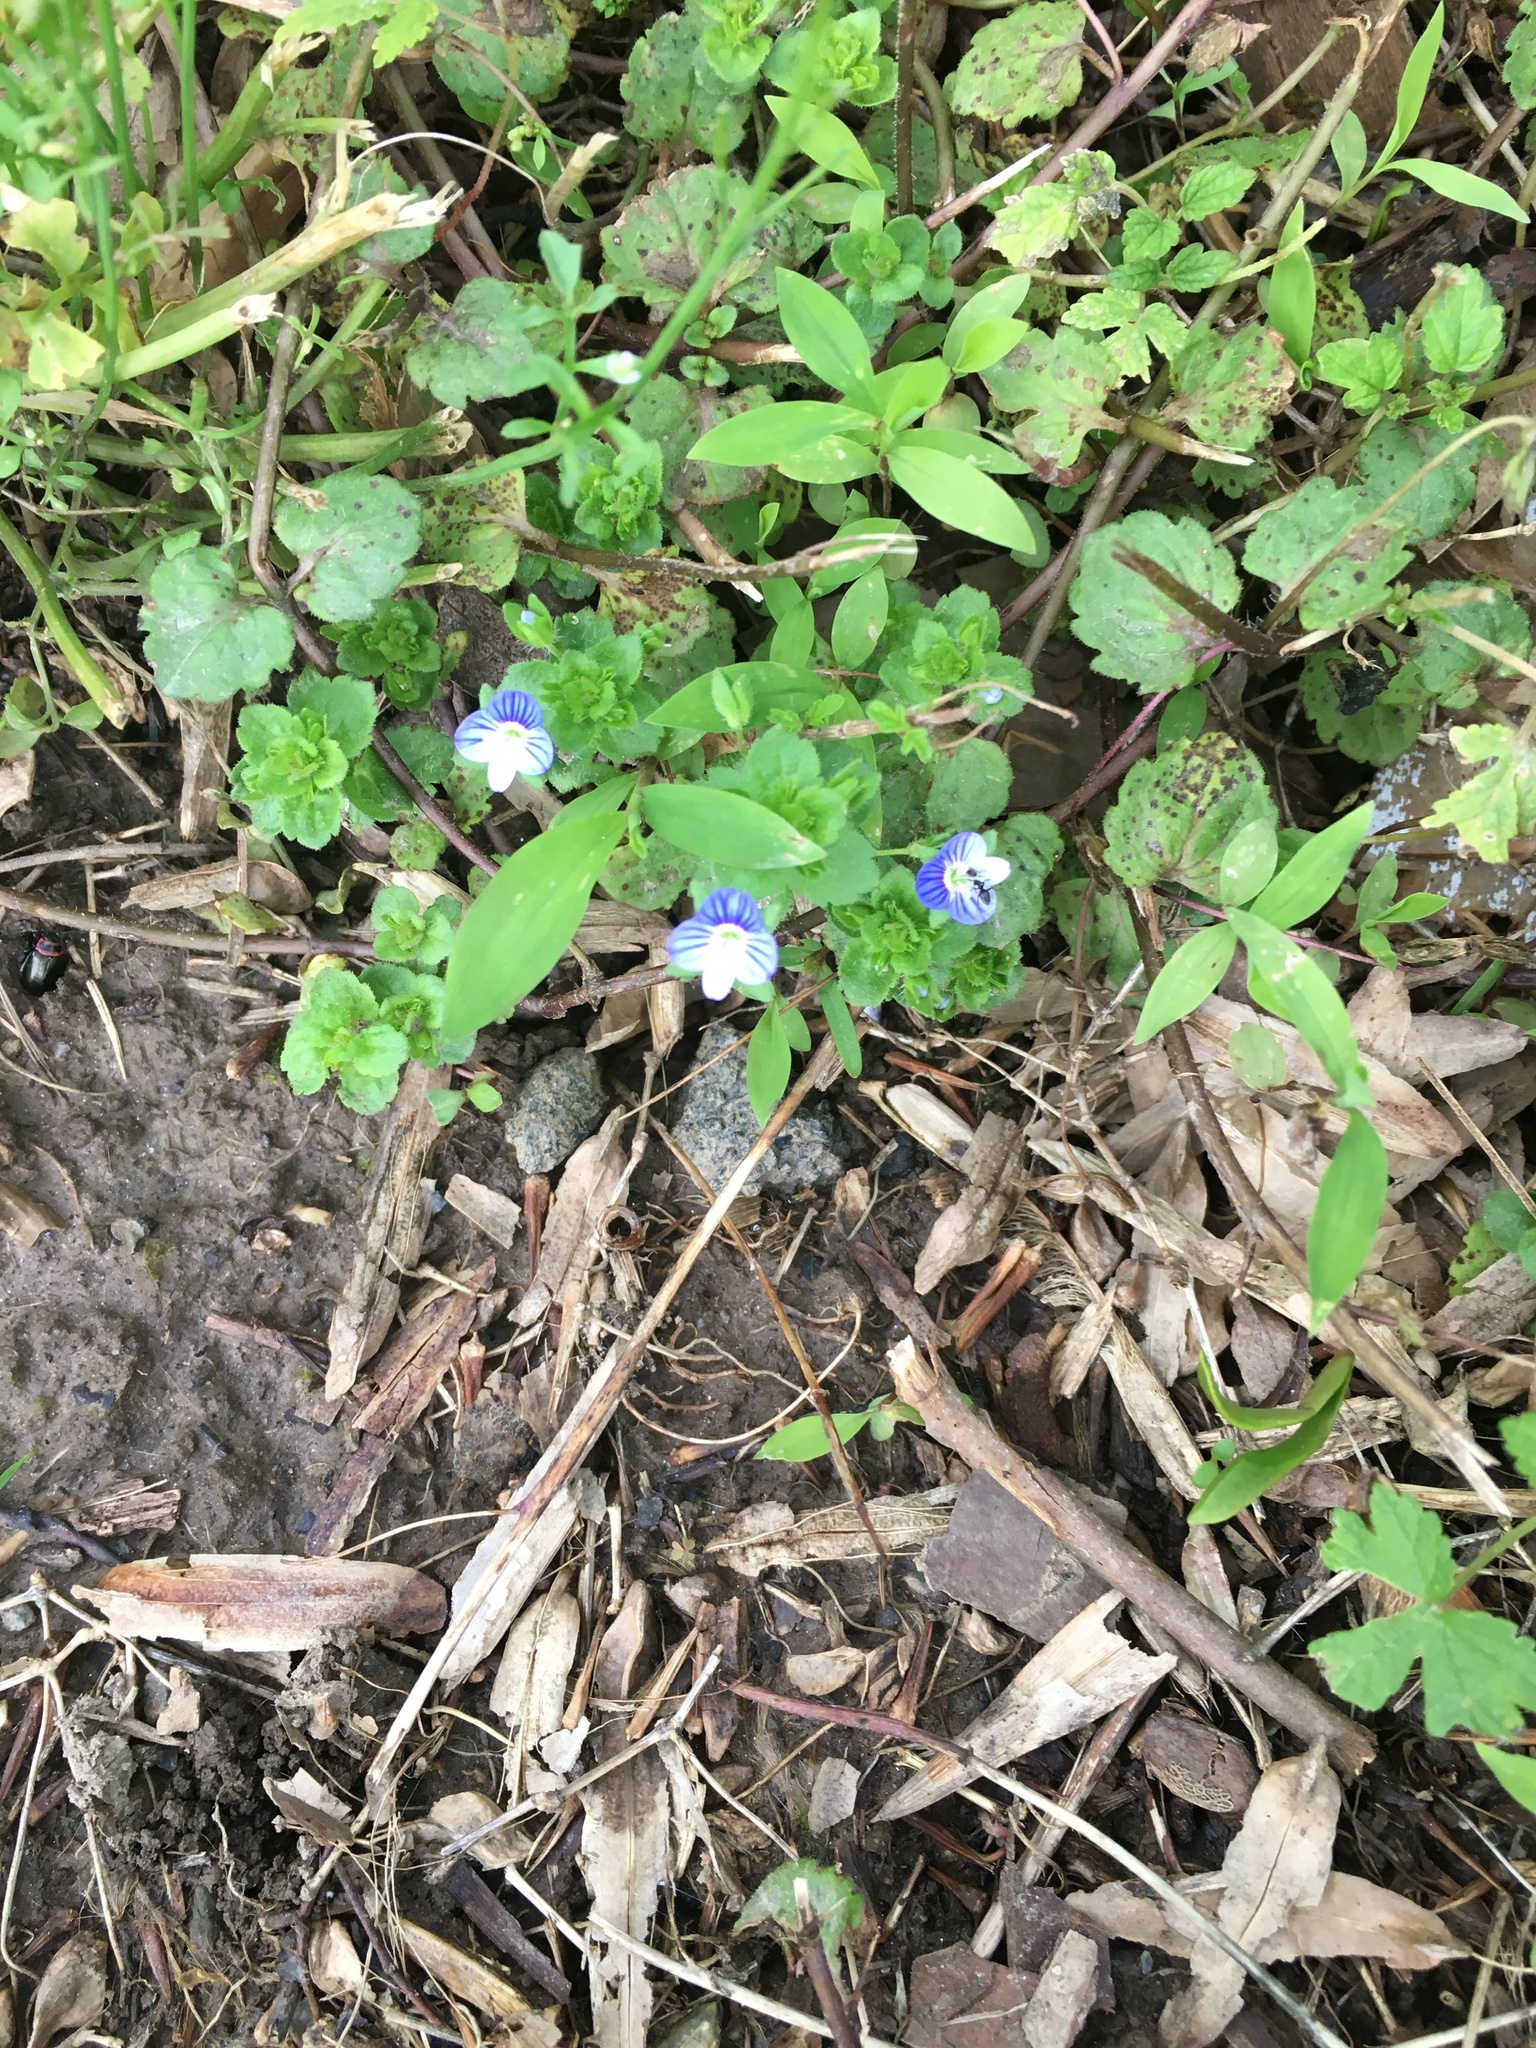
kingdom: Plantae
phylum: Tracheophyta
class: Magnoliopsida
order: Lamiales
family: Plantaginaceae
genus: Veronica
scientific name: Veronica persica
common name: Common field-speedwell
